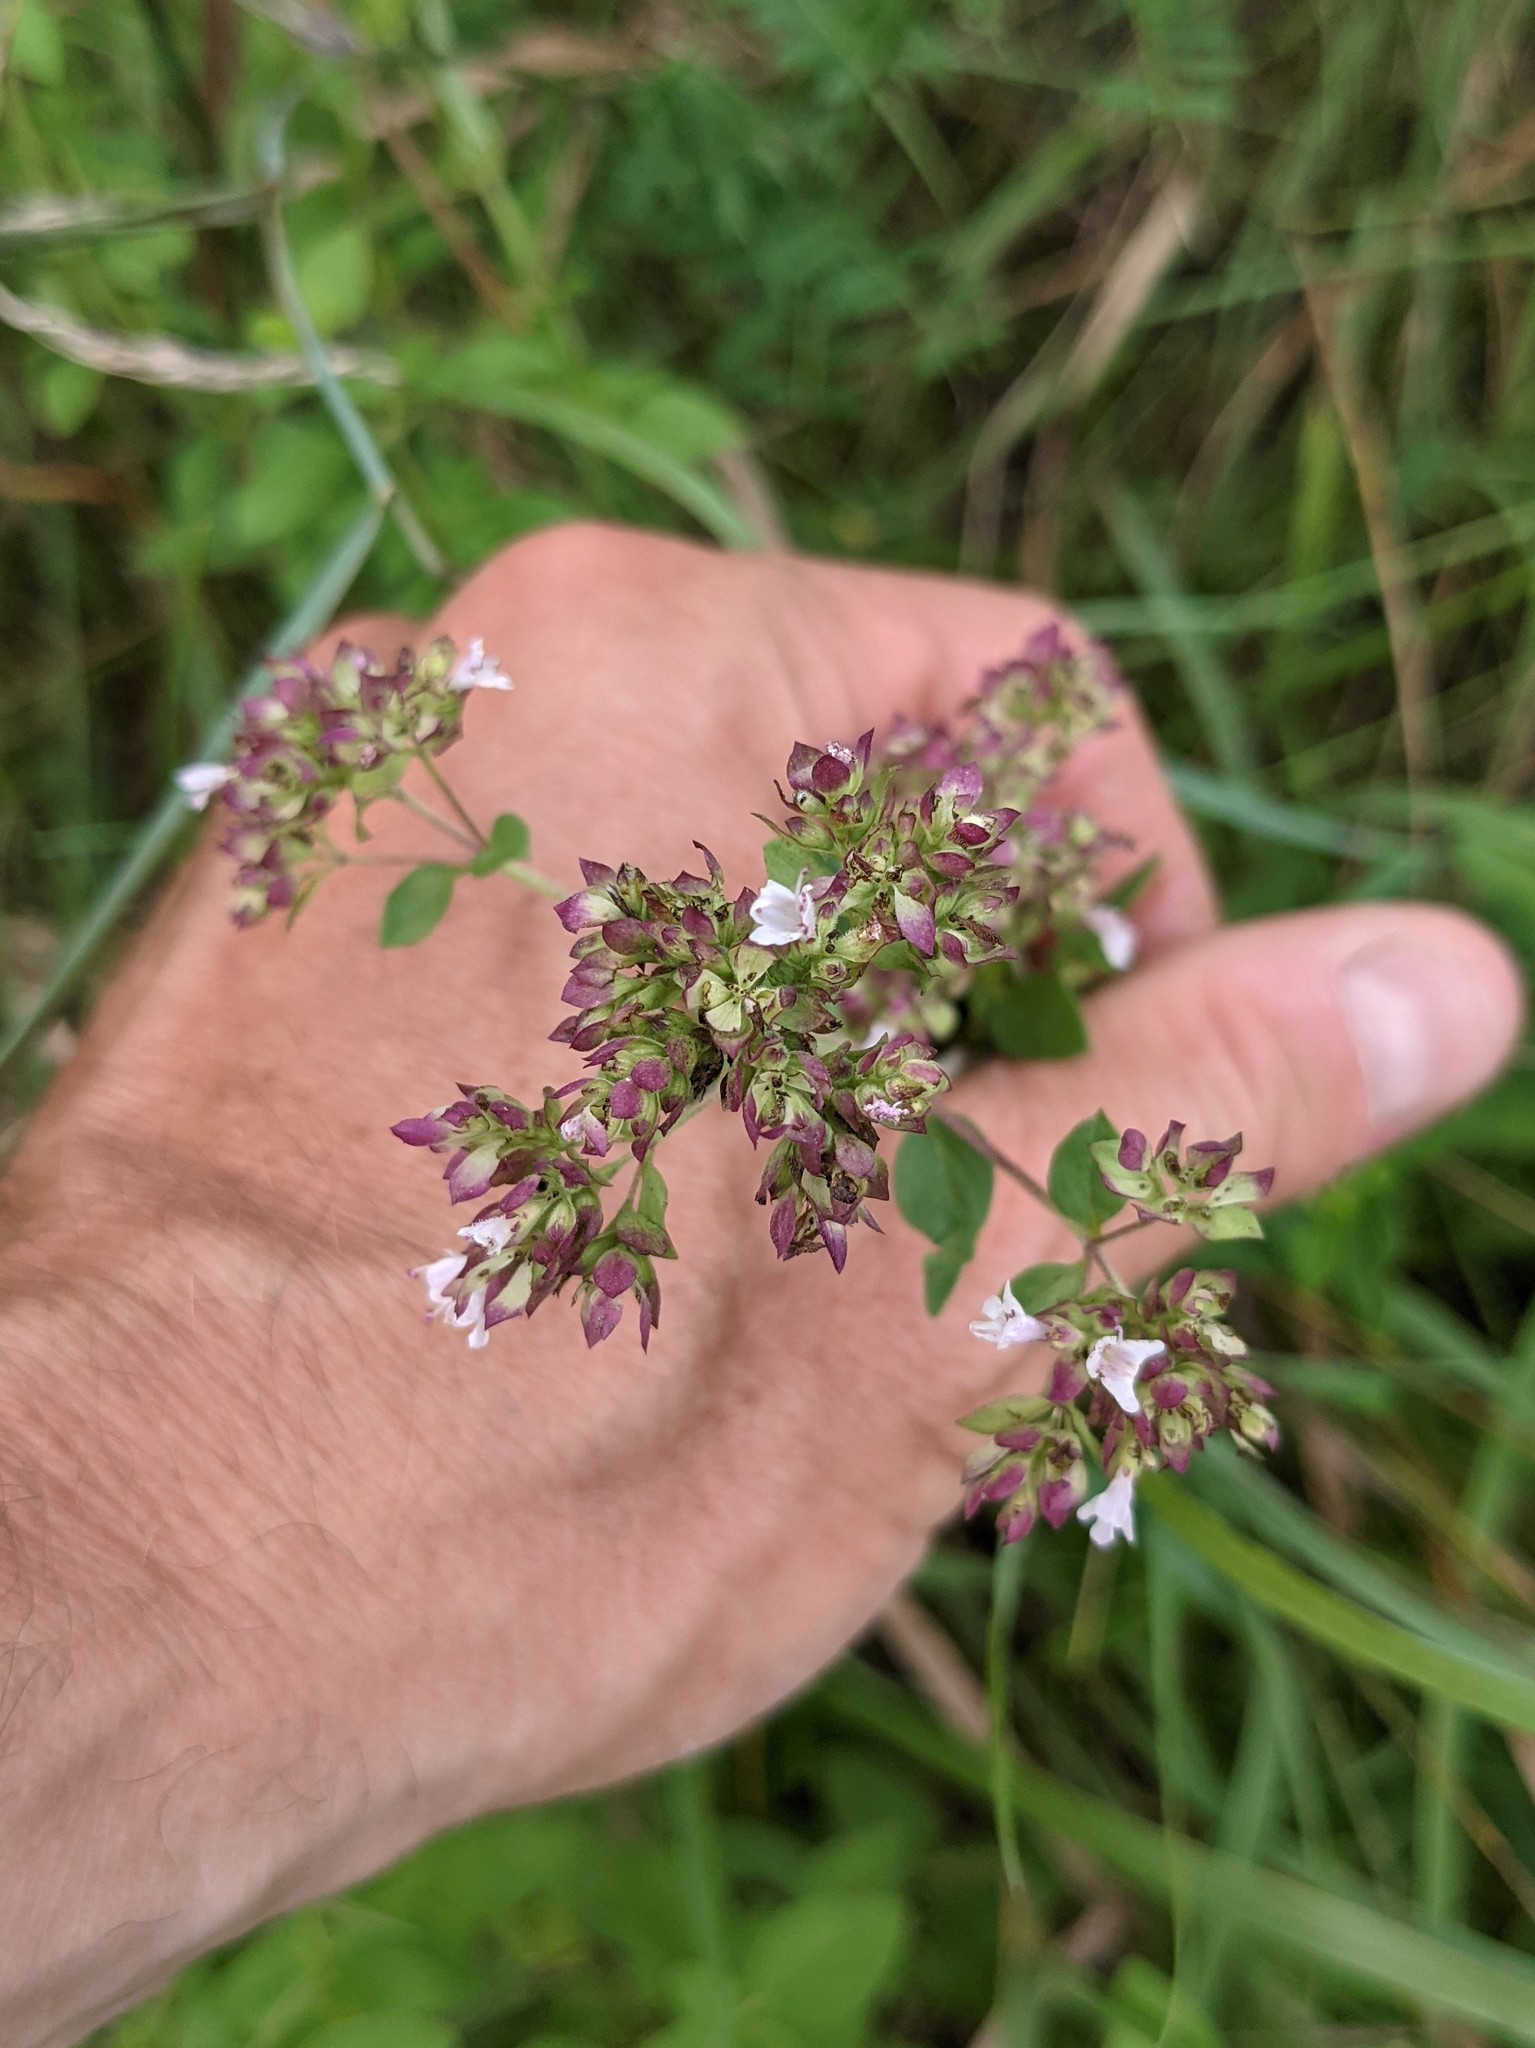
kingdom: Plantae
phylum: Tracheophyta
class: Magnoliopsida
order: Lamiales
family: Lamiaceae
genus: Origanum
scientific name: Origanum vulgare
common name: Wild marjoram
